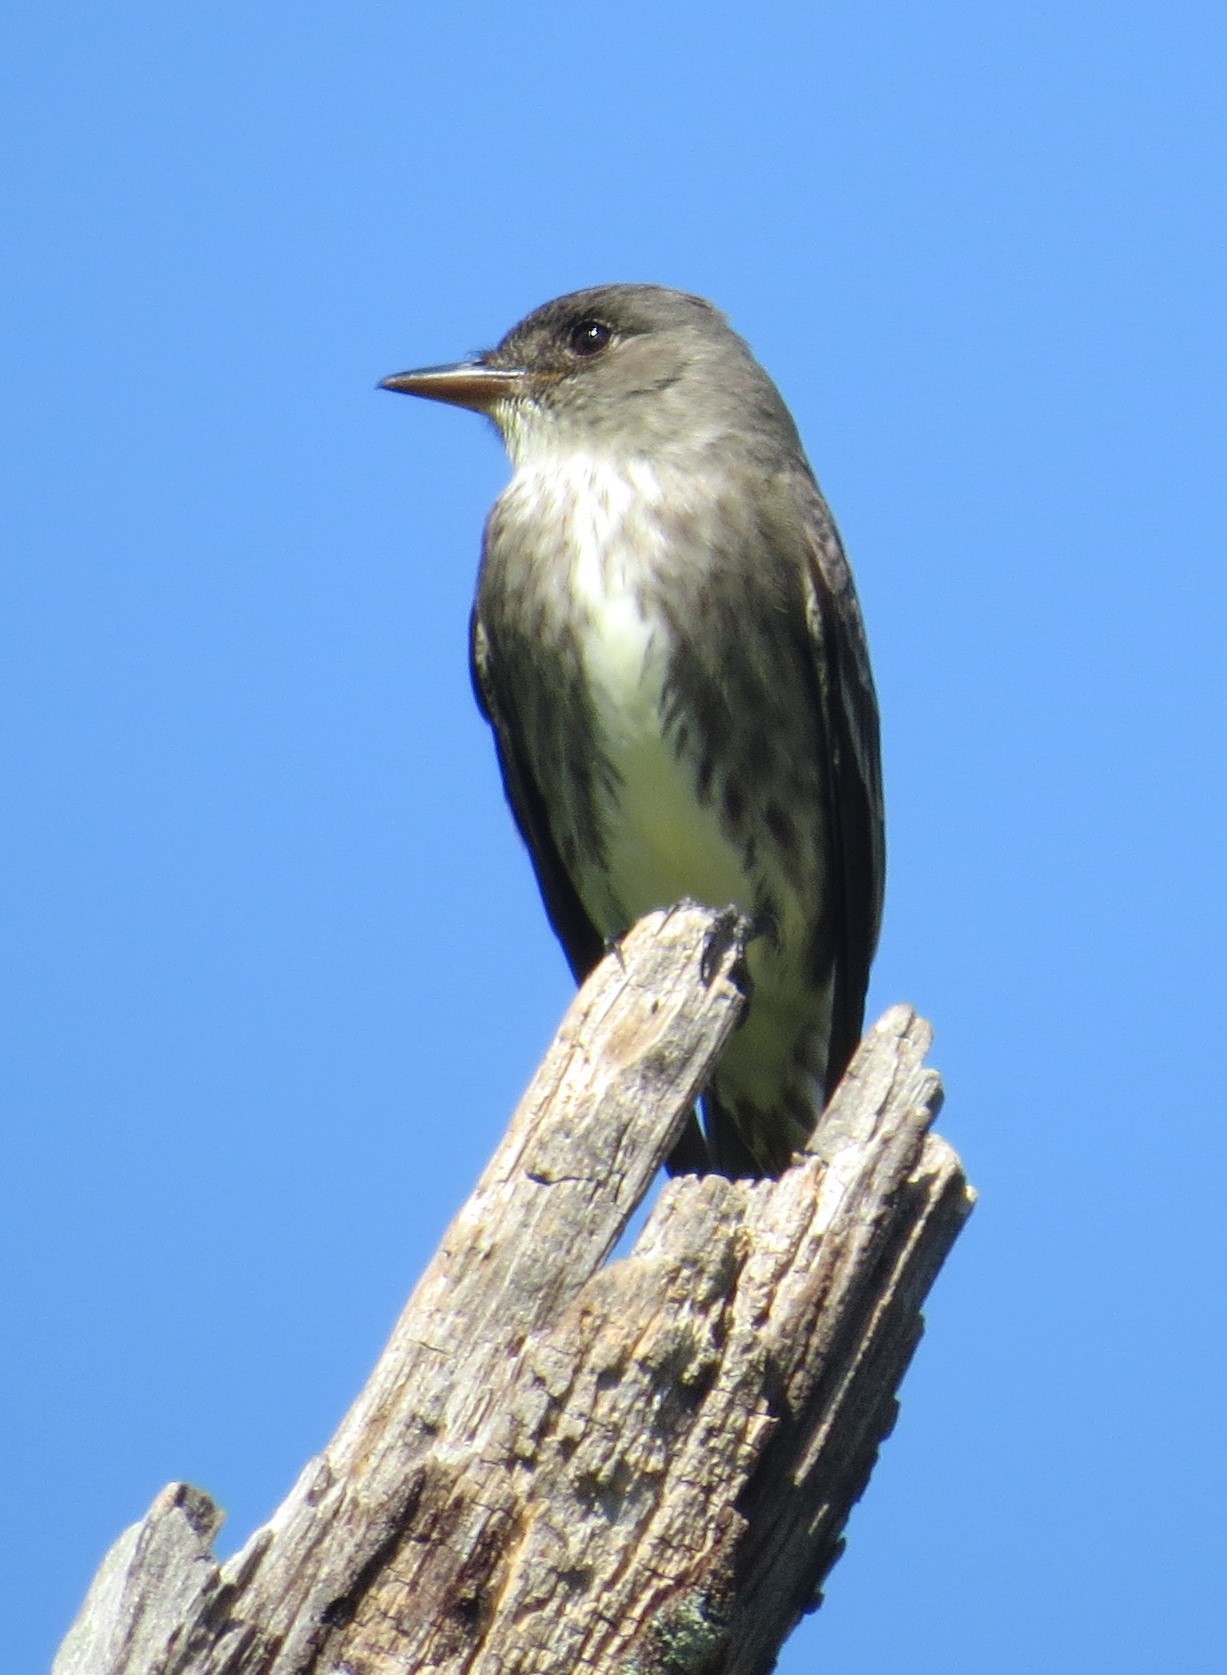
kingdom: Animalia
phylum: Chordata
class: Aves
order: Passeriformes
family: Tyrannidae
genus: Contopus
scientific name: Contopus cooperi
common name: Olive-sided flycatcher
